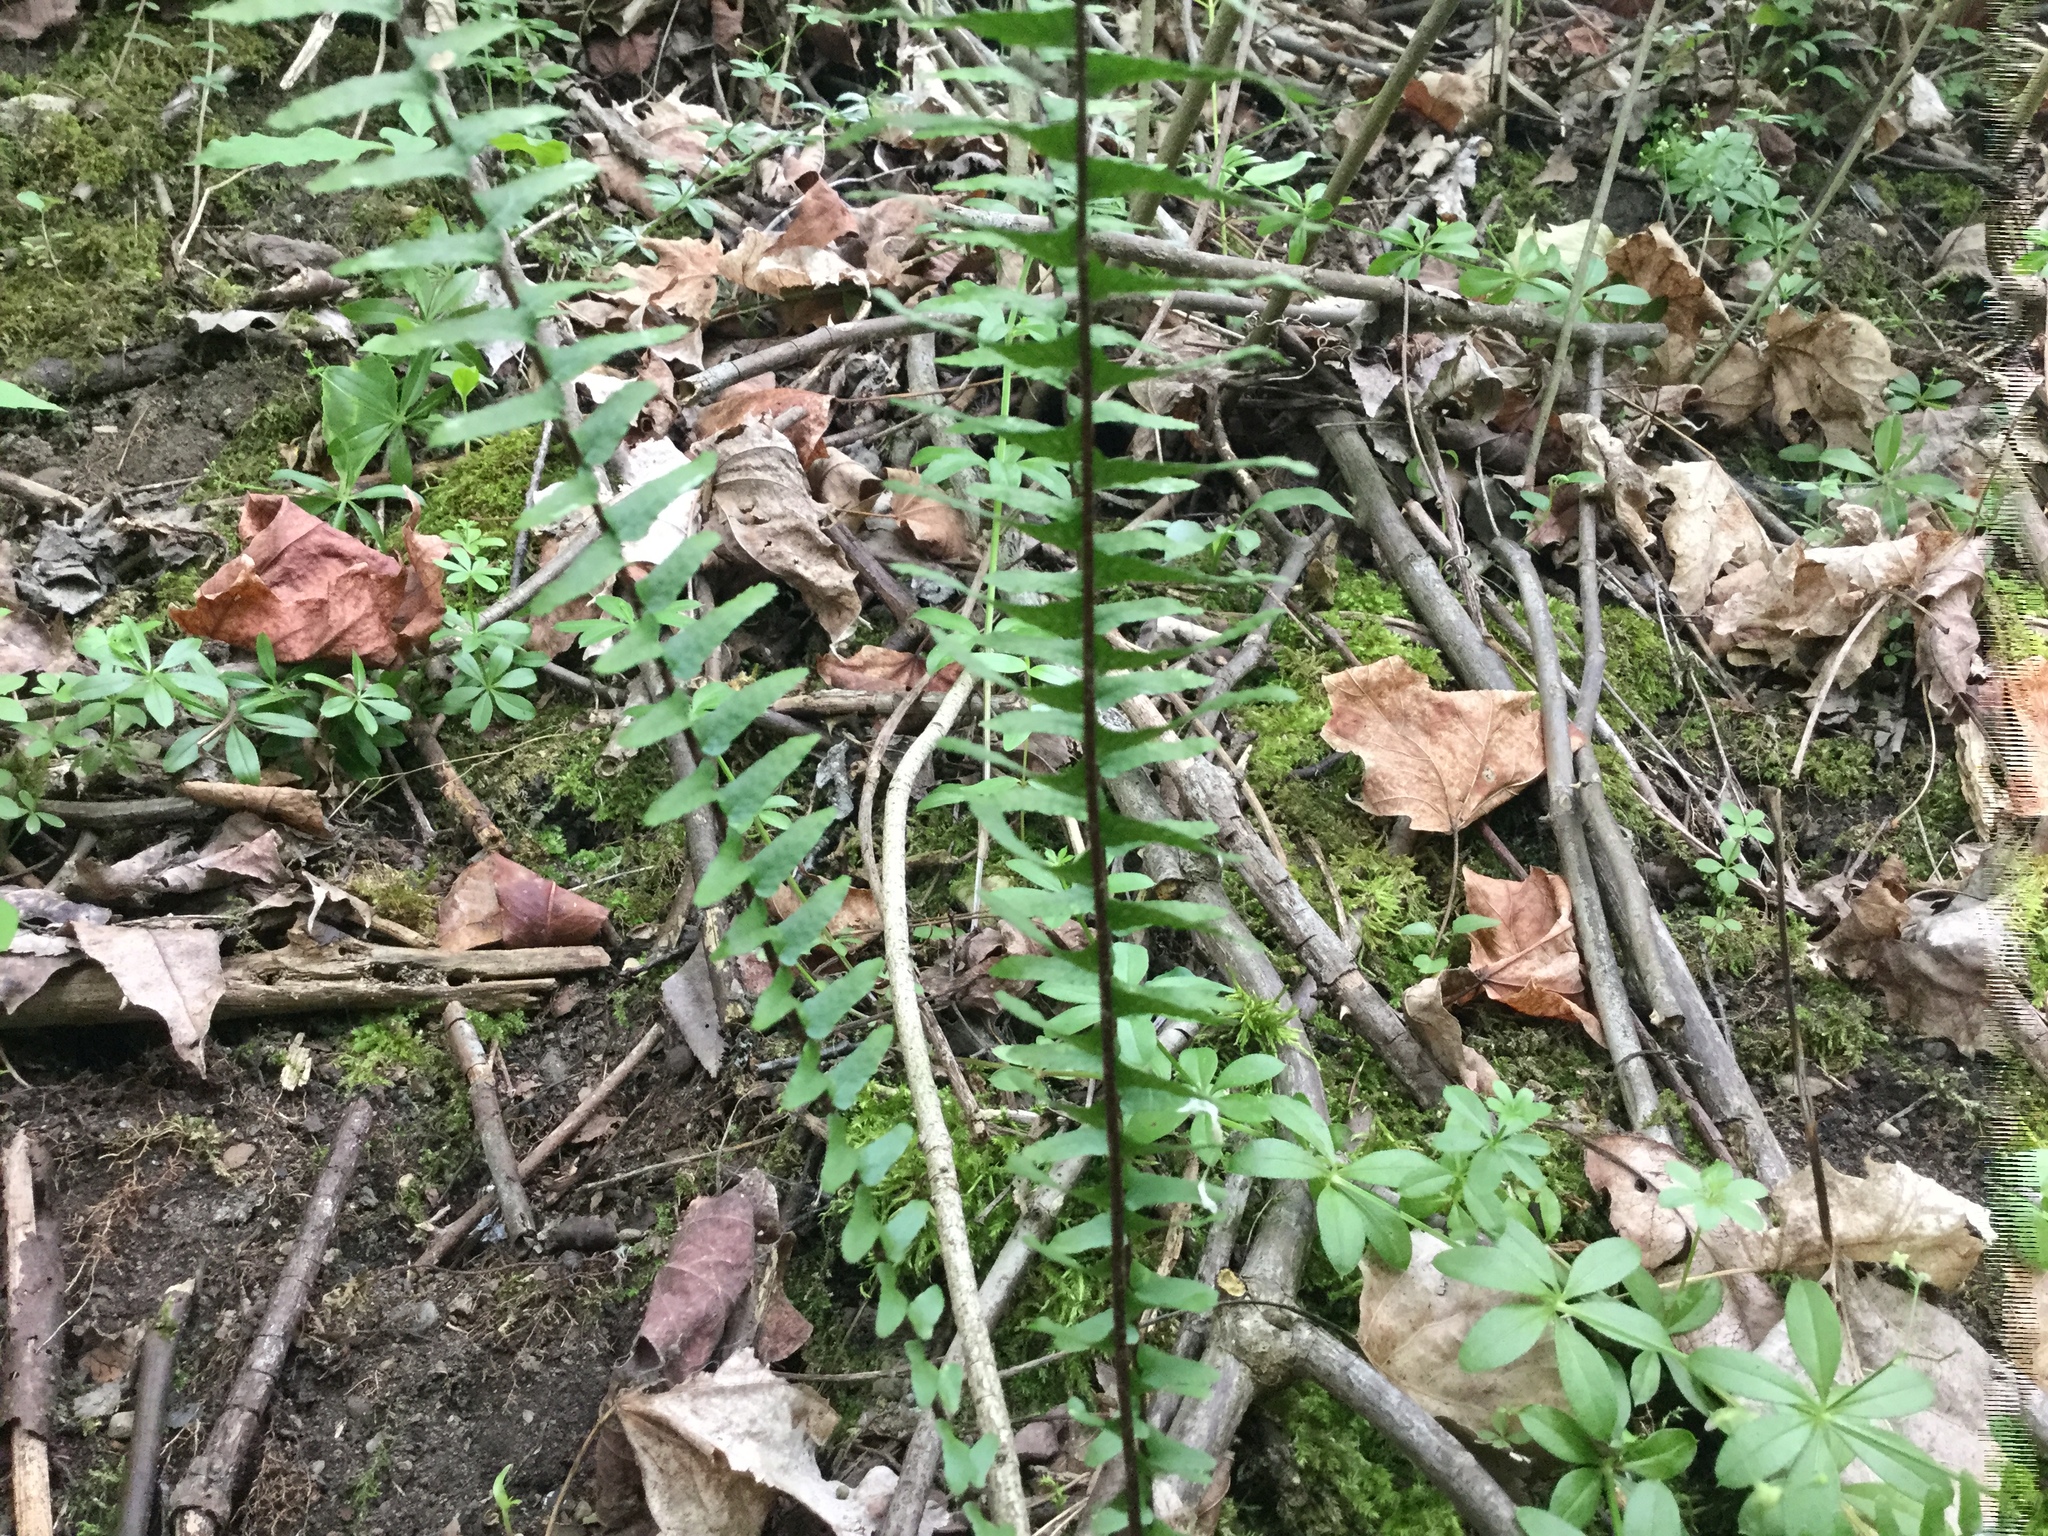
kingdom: Plantae
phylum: Tracheophyta
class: Polypodiopsida
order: Polypodiales
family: Aspleniaceae
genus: Asplenium
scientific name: Asplenium platyneuron
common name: Ebony spleenwort
